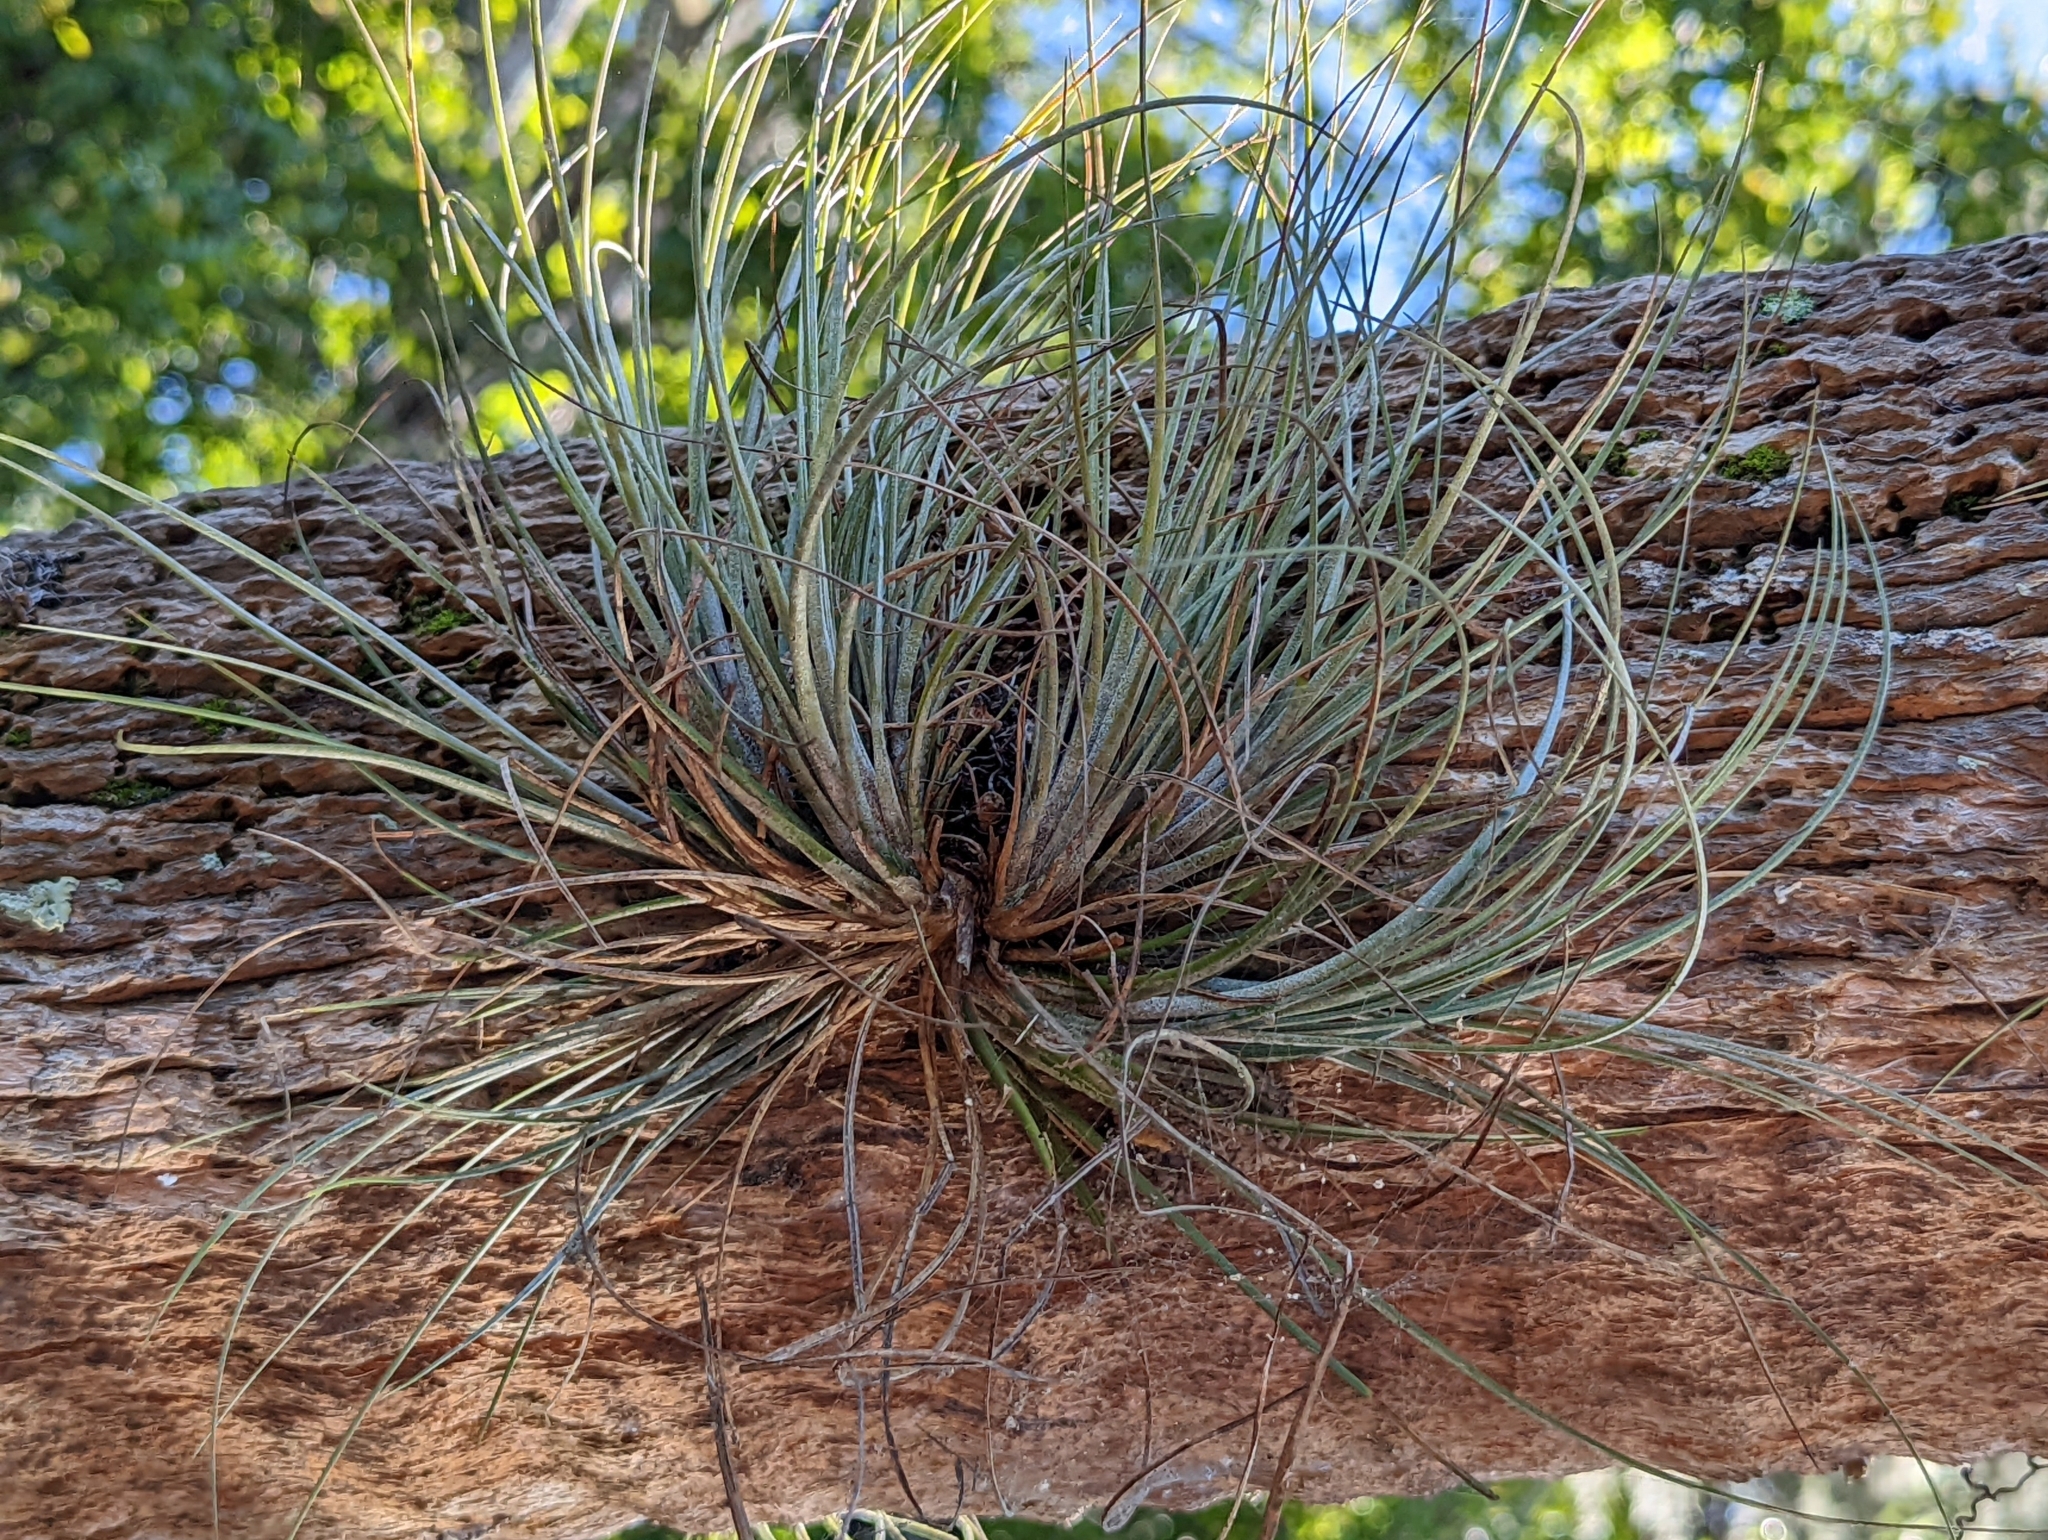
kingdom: Plantae
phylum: Tracheophyta
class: Liliopsida
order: Poales
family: Bromeliaceae
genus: Tillandsia
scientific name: Tillandsia bartramii
